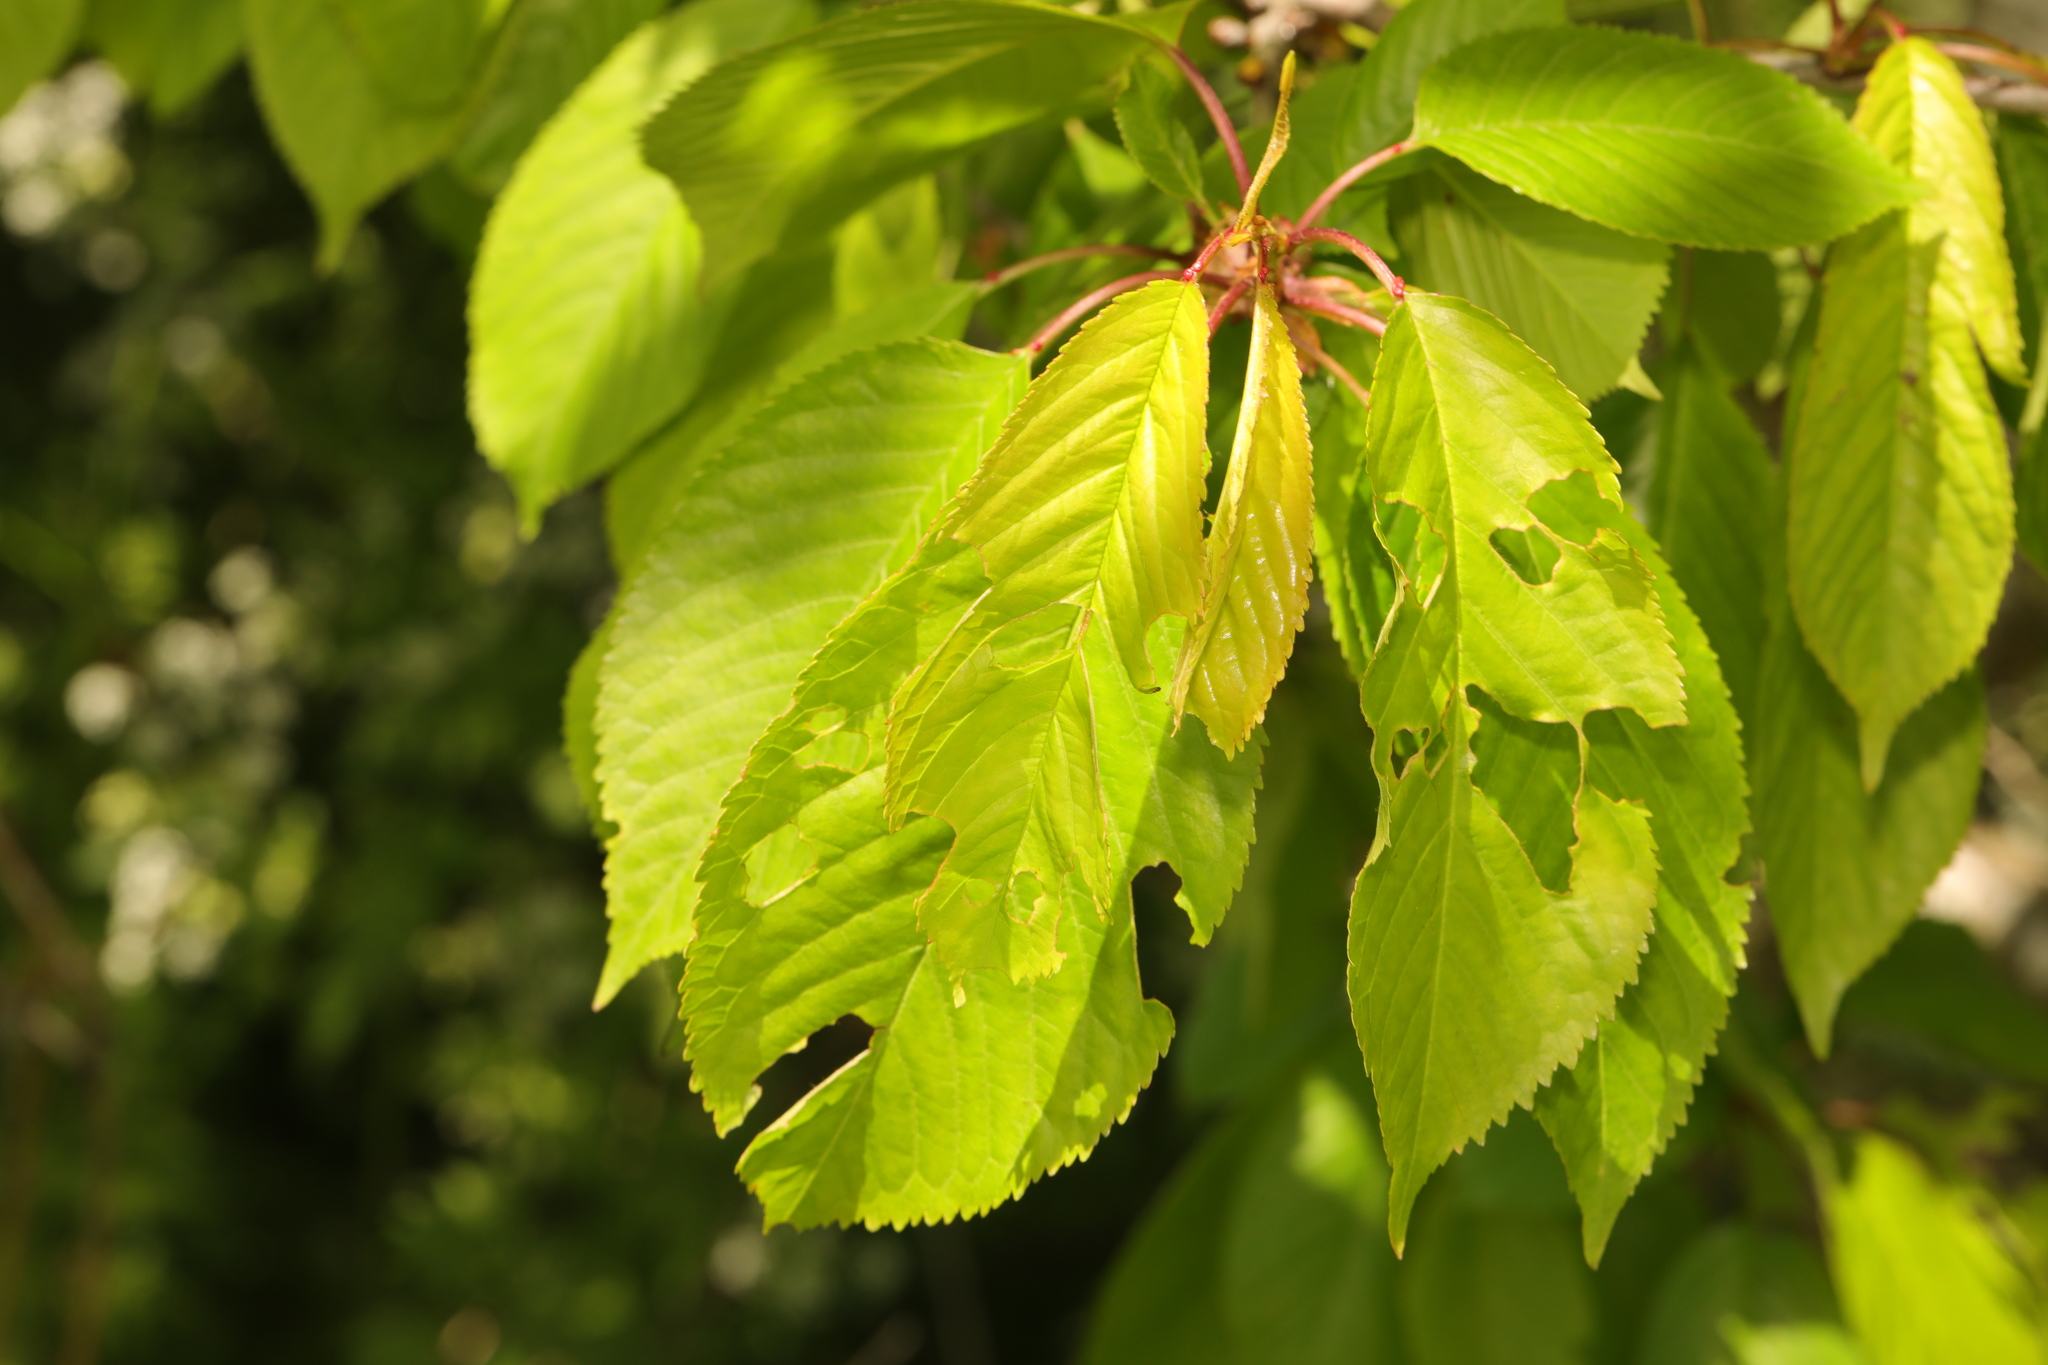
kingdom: Plantae
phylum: Tracheophyta
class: Magnoliopsida
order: Rosales
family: Rosaceae
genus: Prunus
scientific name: Prunus avium
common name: Sweet cherry
